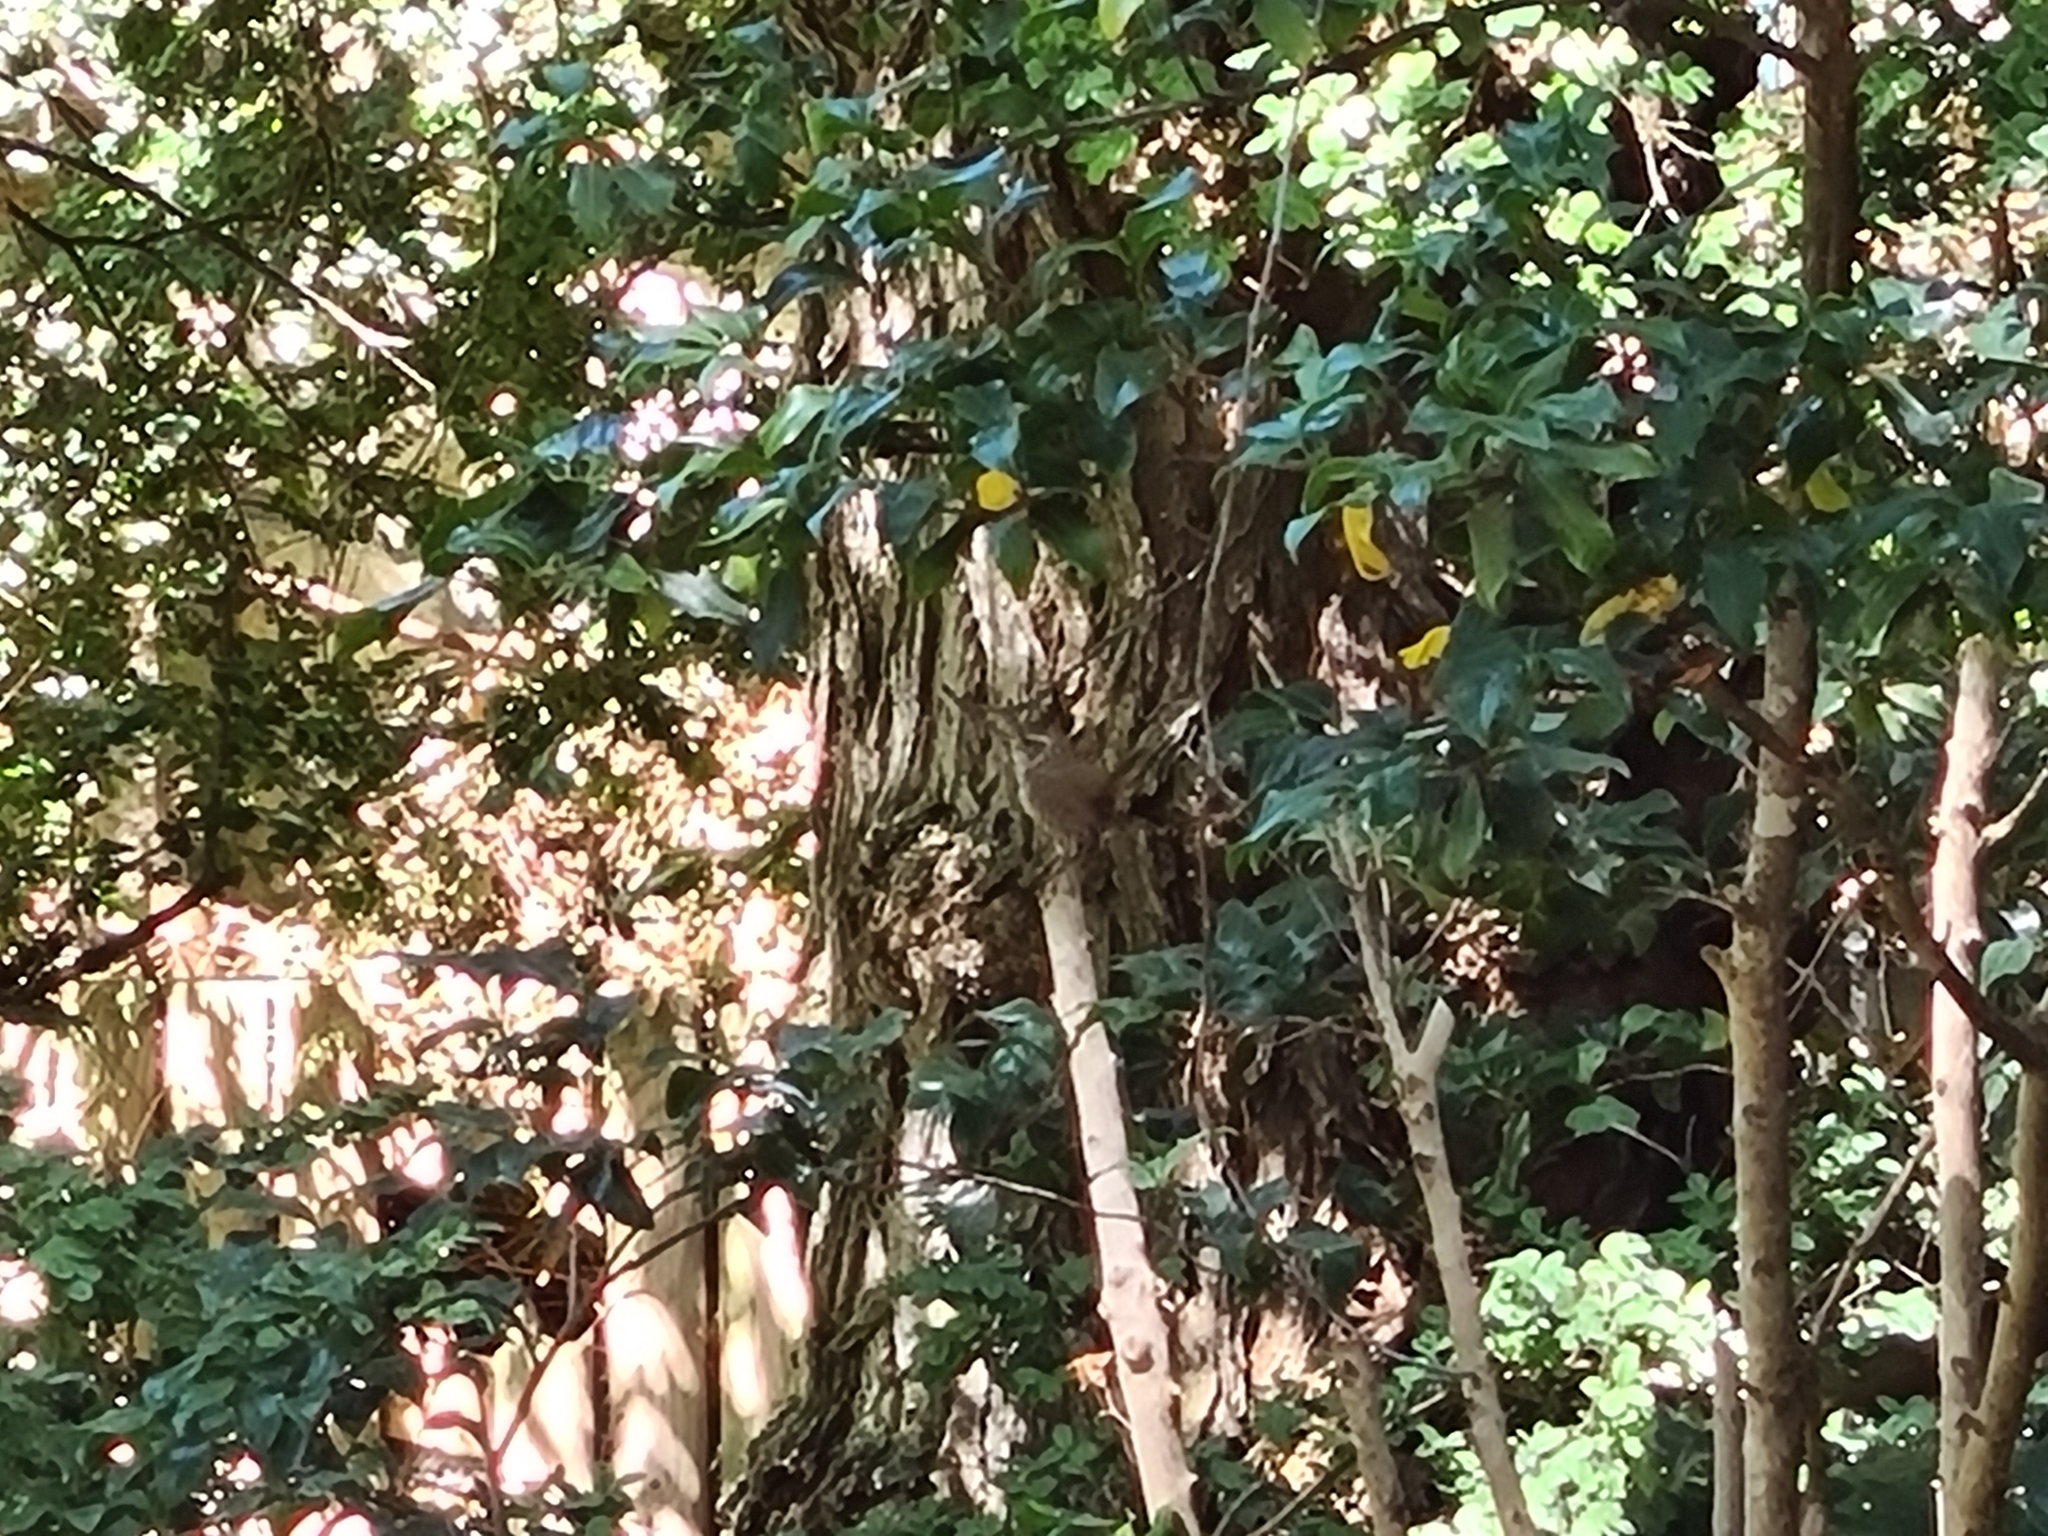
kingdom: Animalia
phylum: Chordata
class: Aves
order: Passeriformes
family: Troglodytidae
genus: Troglodytes
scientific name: Troglodytes troglodytes
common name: Eurasian wren
